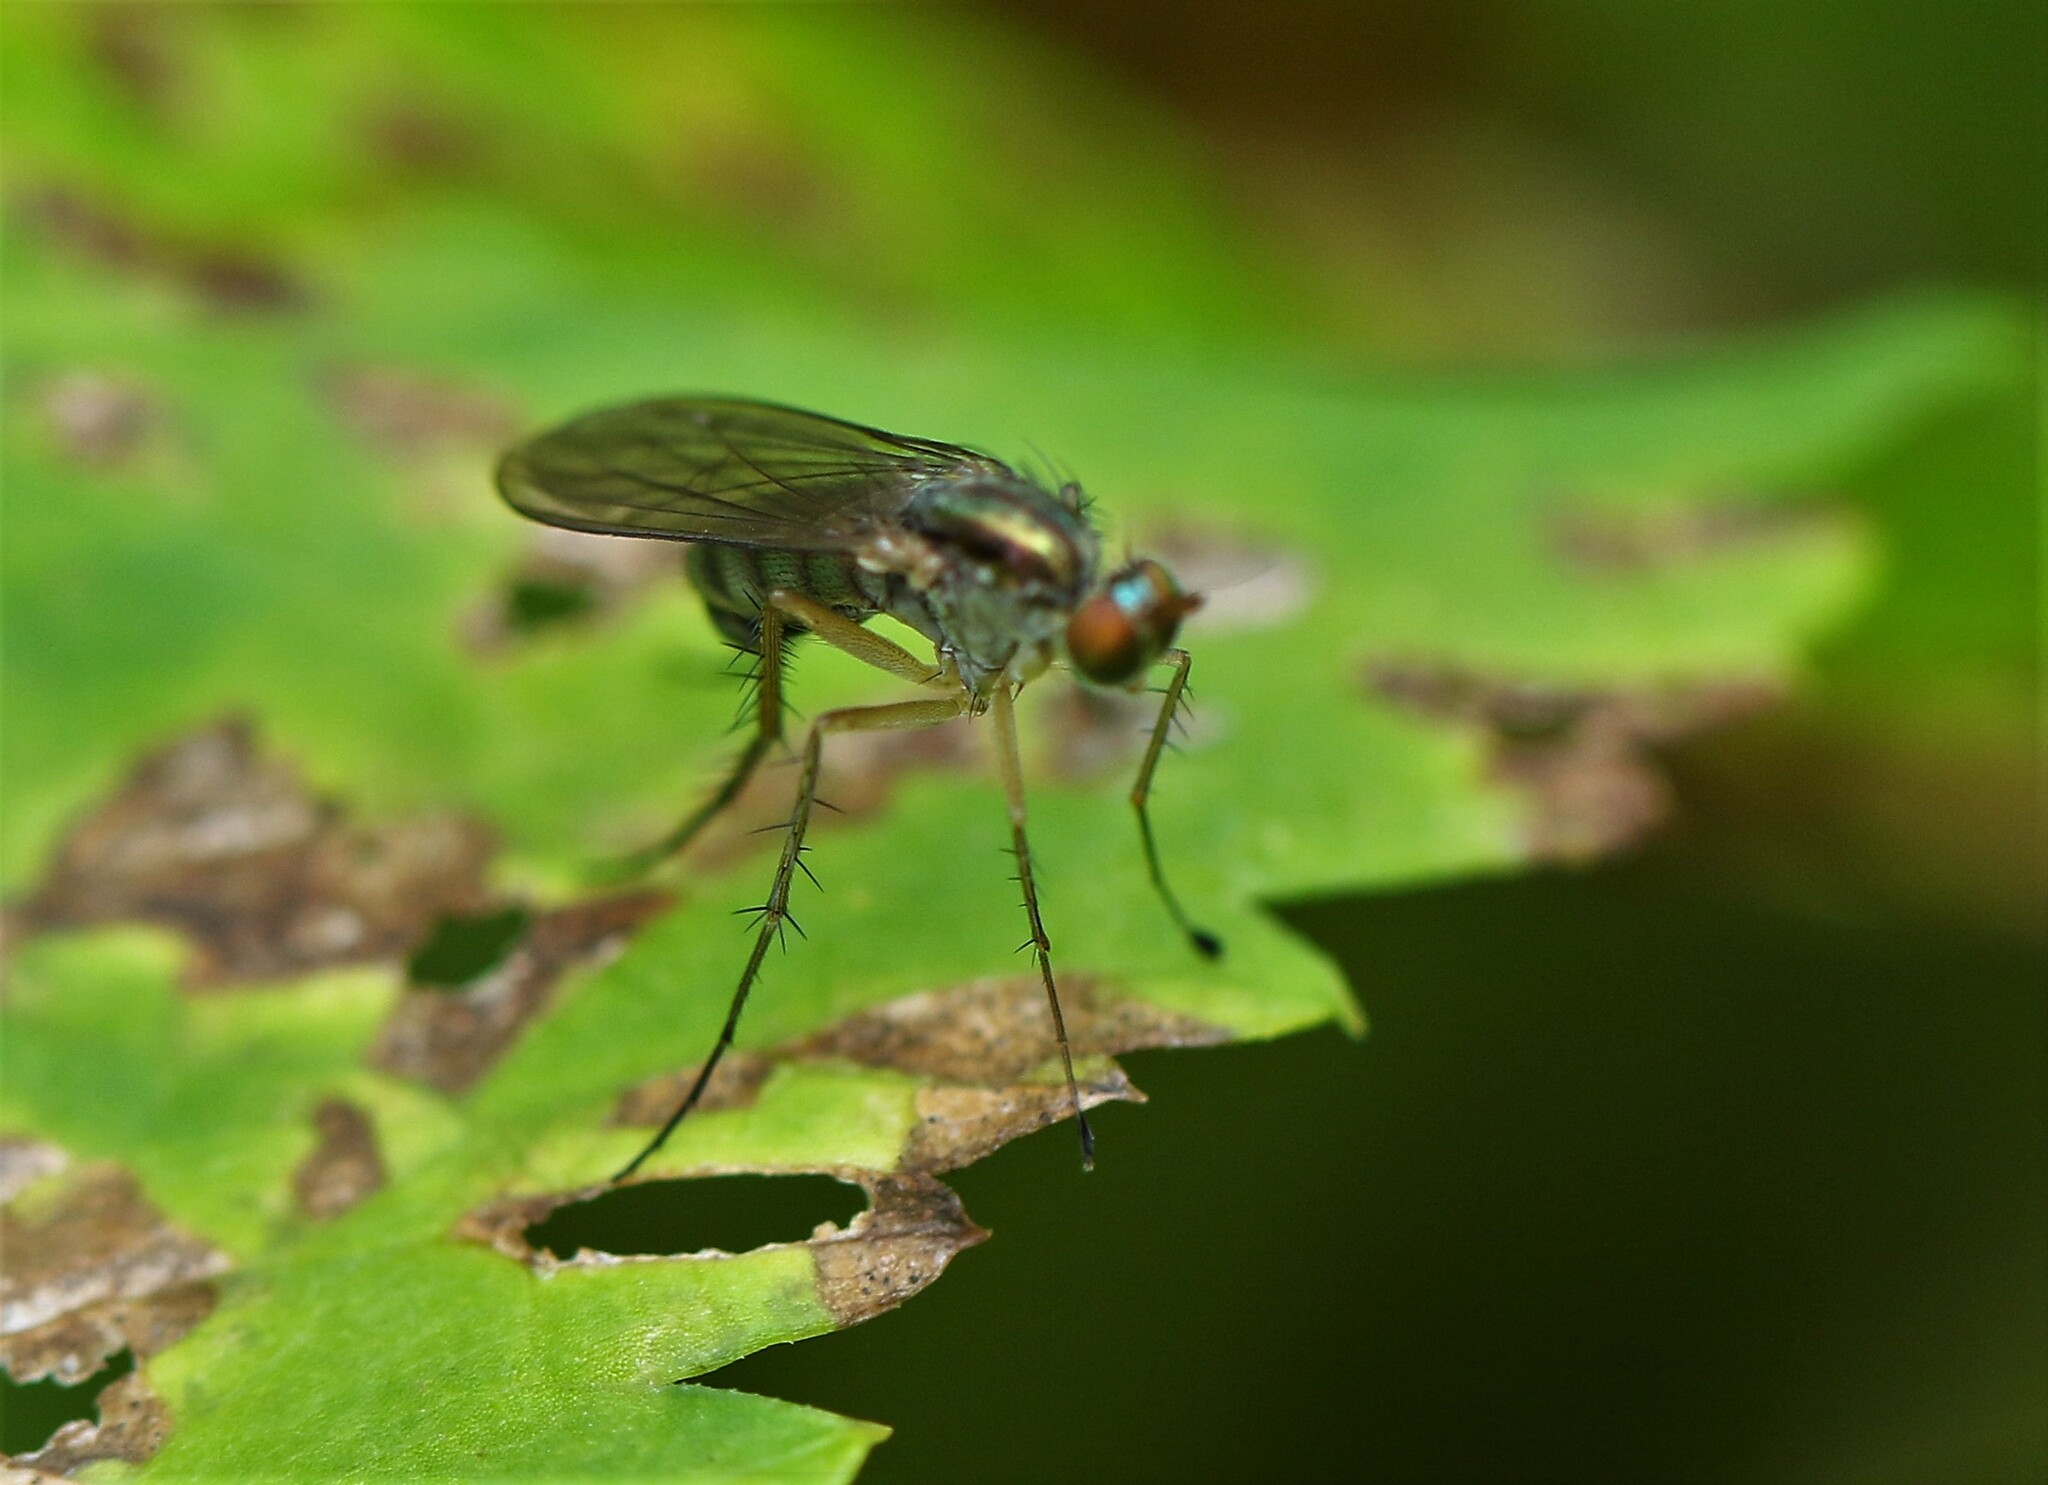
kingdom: Animalia
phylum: Arthropoda
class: Insecta
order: Diptera
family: Dolichopodidae
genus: Dolichopus
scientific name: Dolichopus cuprinus
